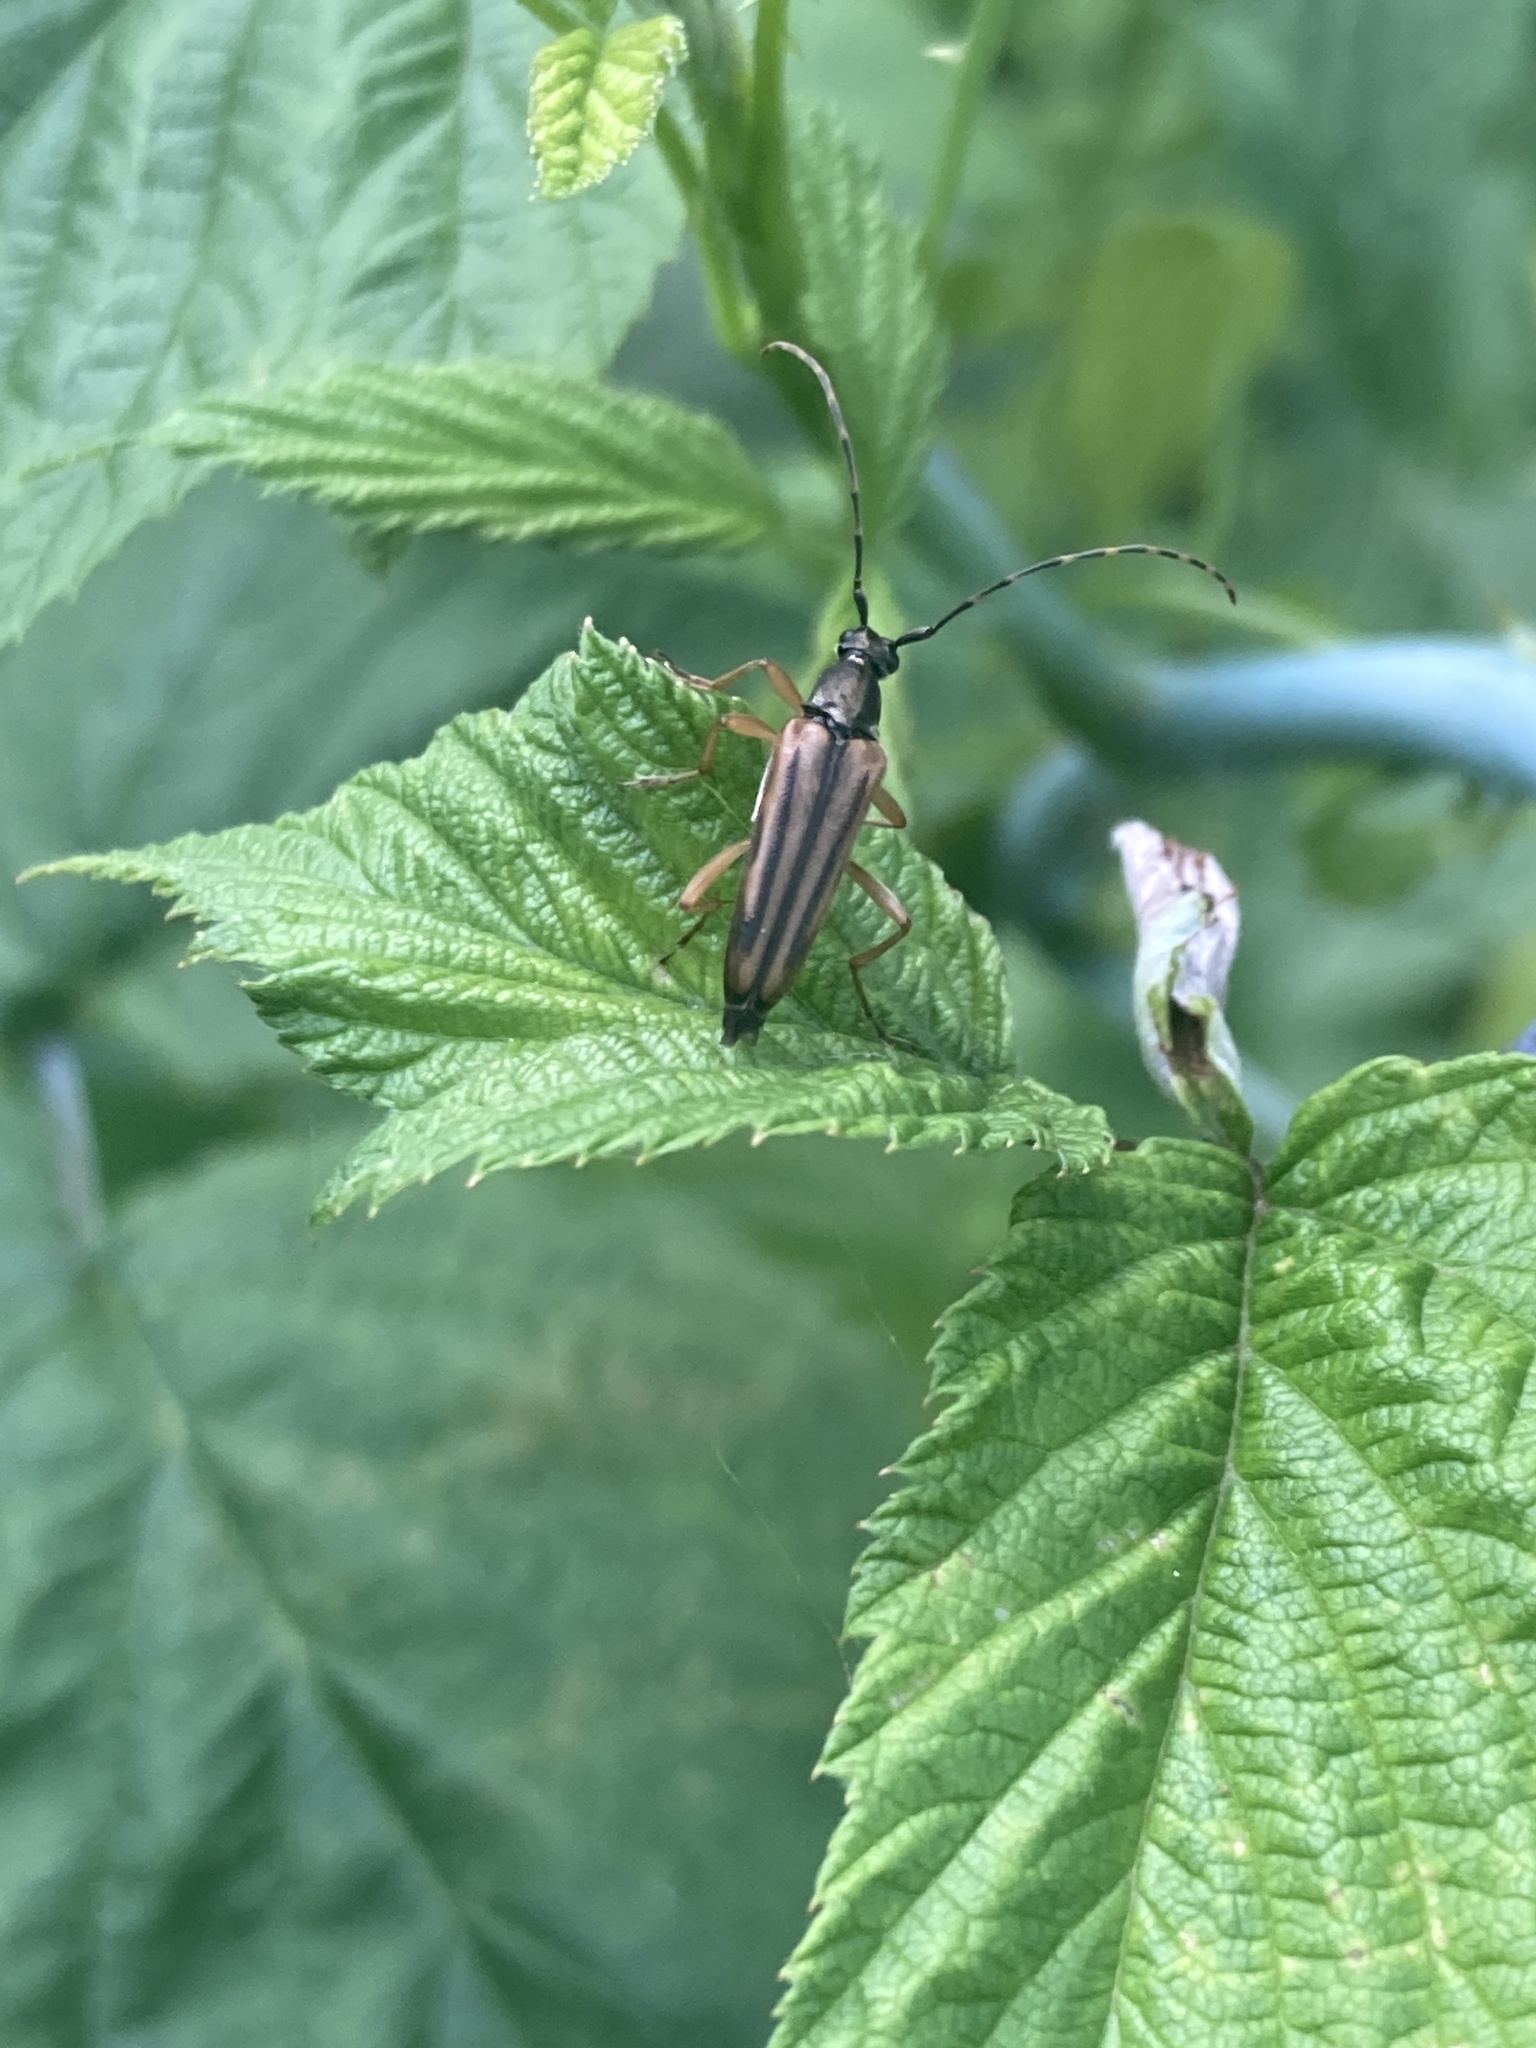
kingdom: Animalia
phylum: Arthropoda
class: Insecta
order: Coleoptera
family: Cerambycidae
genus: Analeptura
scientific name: Analeptura lineola
